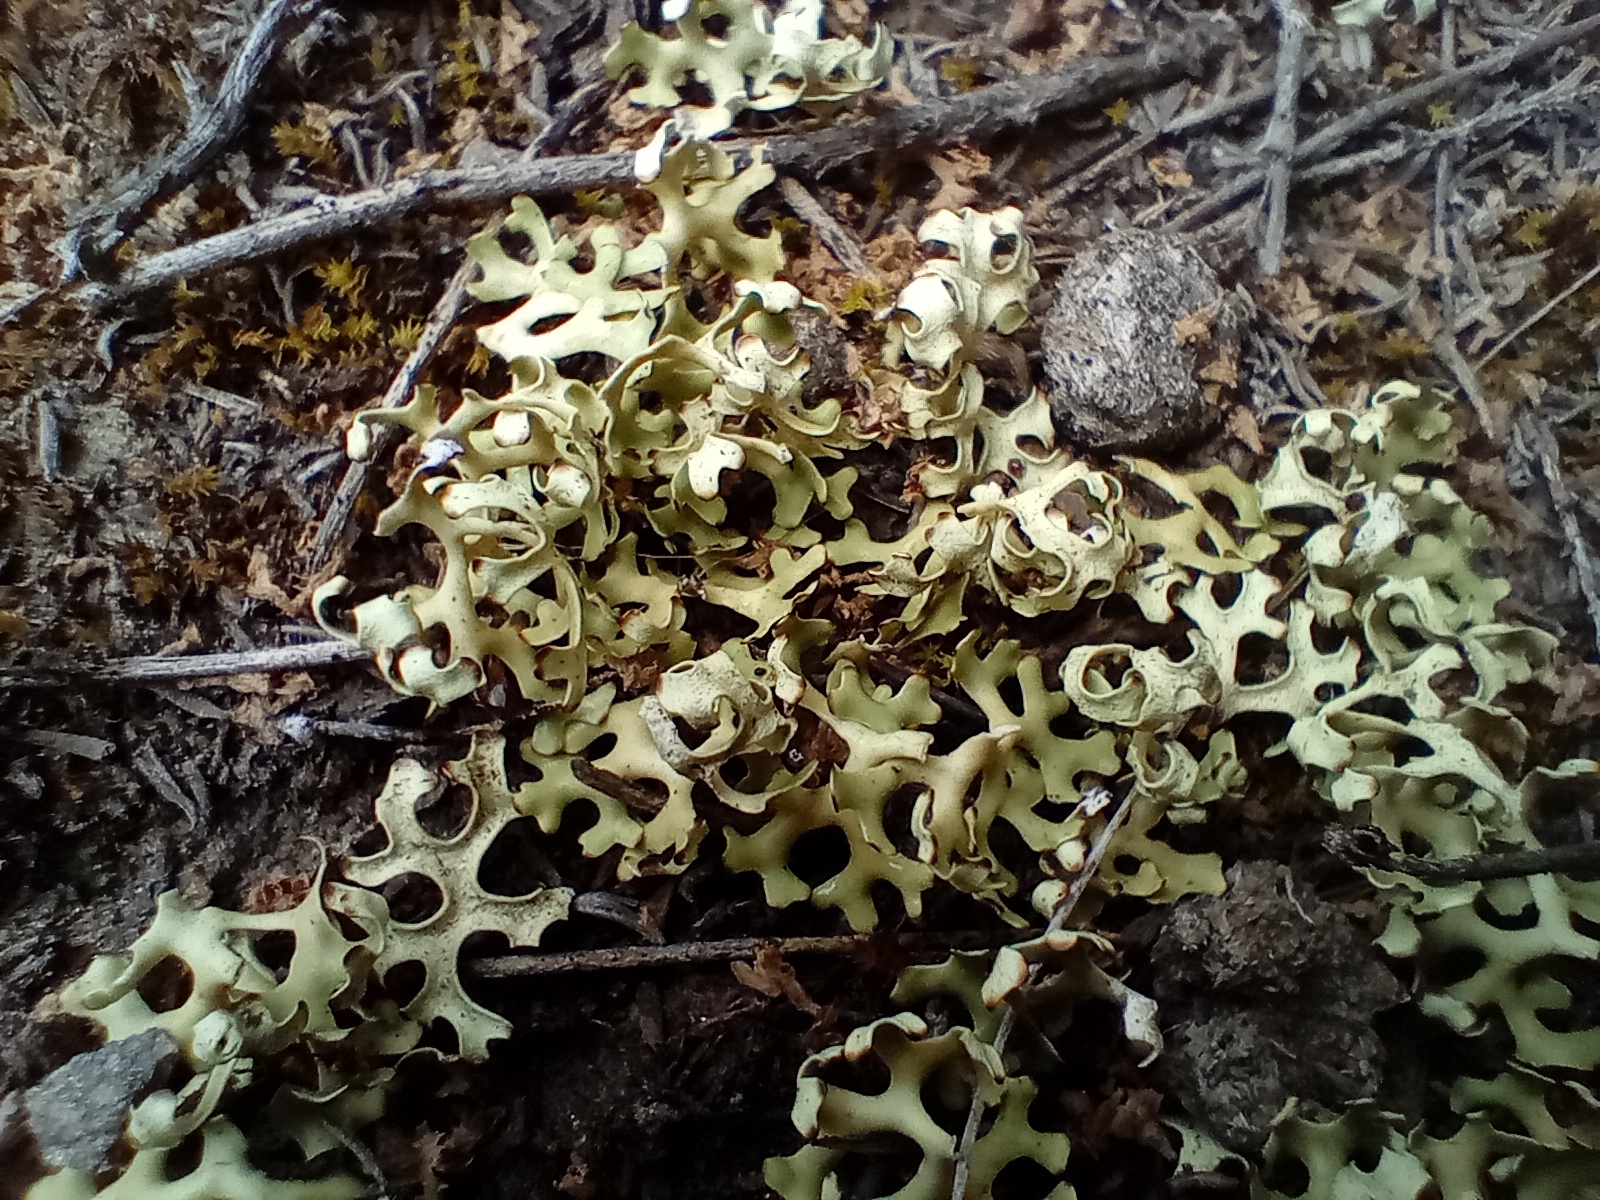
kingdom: Fungi
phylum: Ascomycota
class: Lecanoromycetes
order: Lecanorales
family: Parmeliaceae
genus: Xanthoparmelia
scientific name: Xanthoparmelia semiviridis
